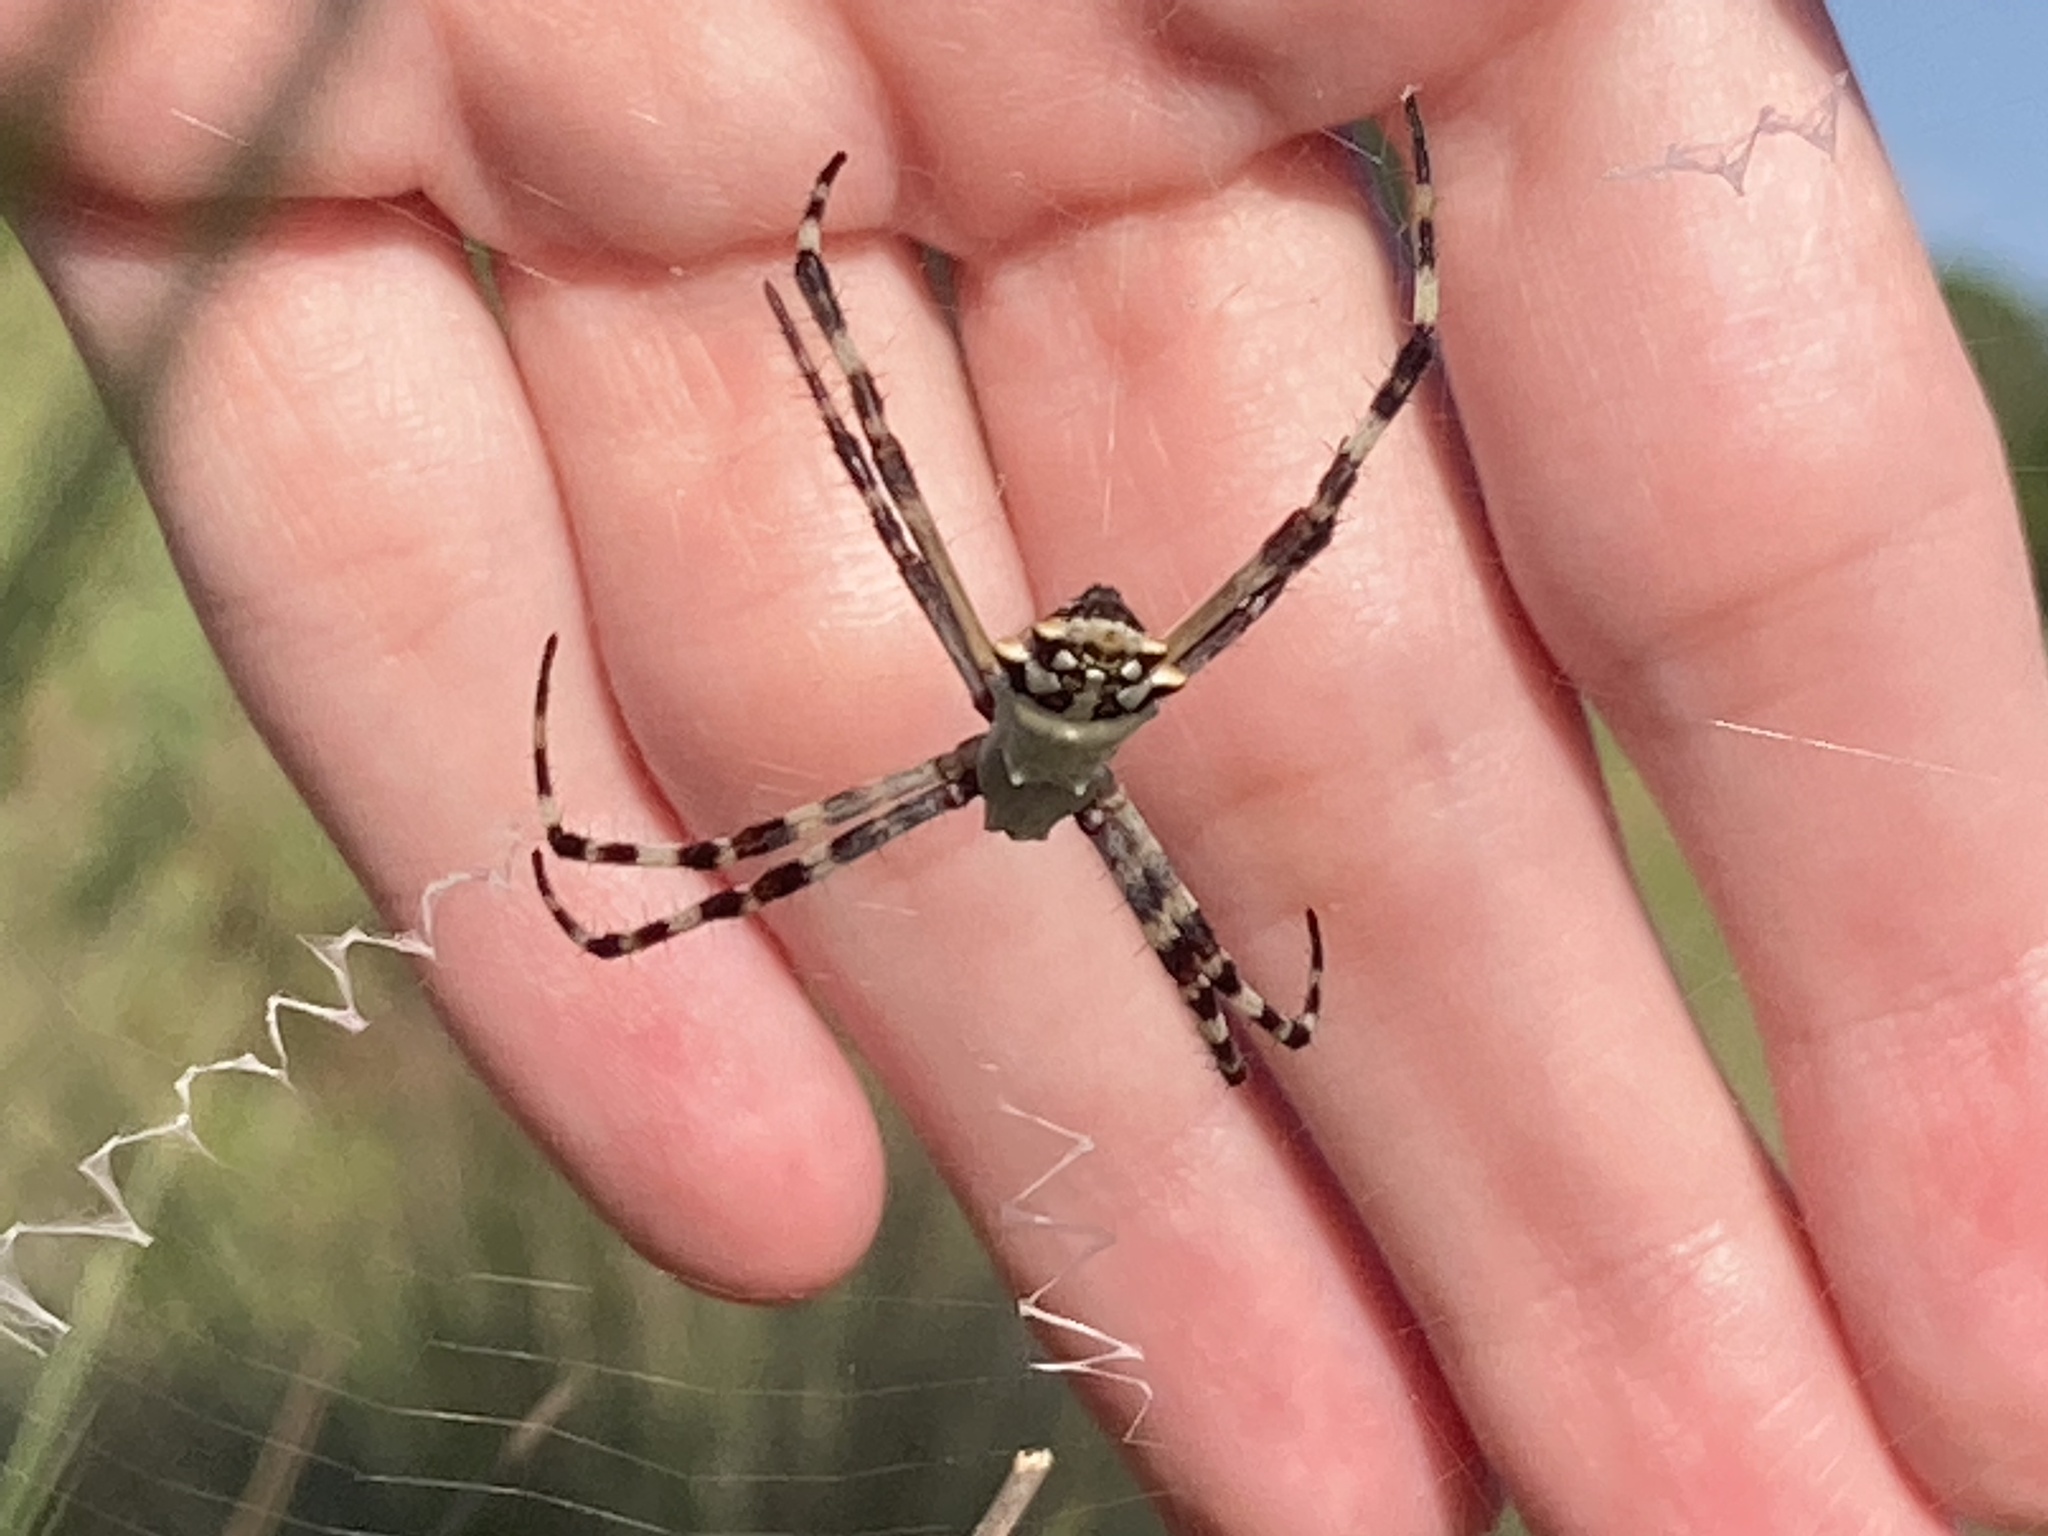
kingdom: Animalia
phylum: Arthropoda
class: Arachnida
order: Araneae
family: Araneidae
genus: Argiope
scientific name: Argiope argentata
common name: Orb weavers
